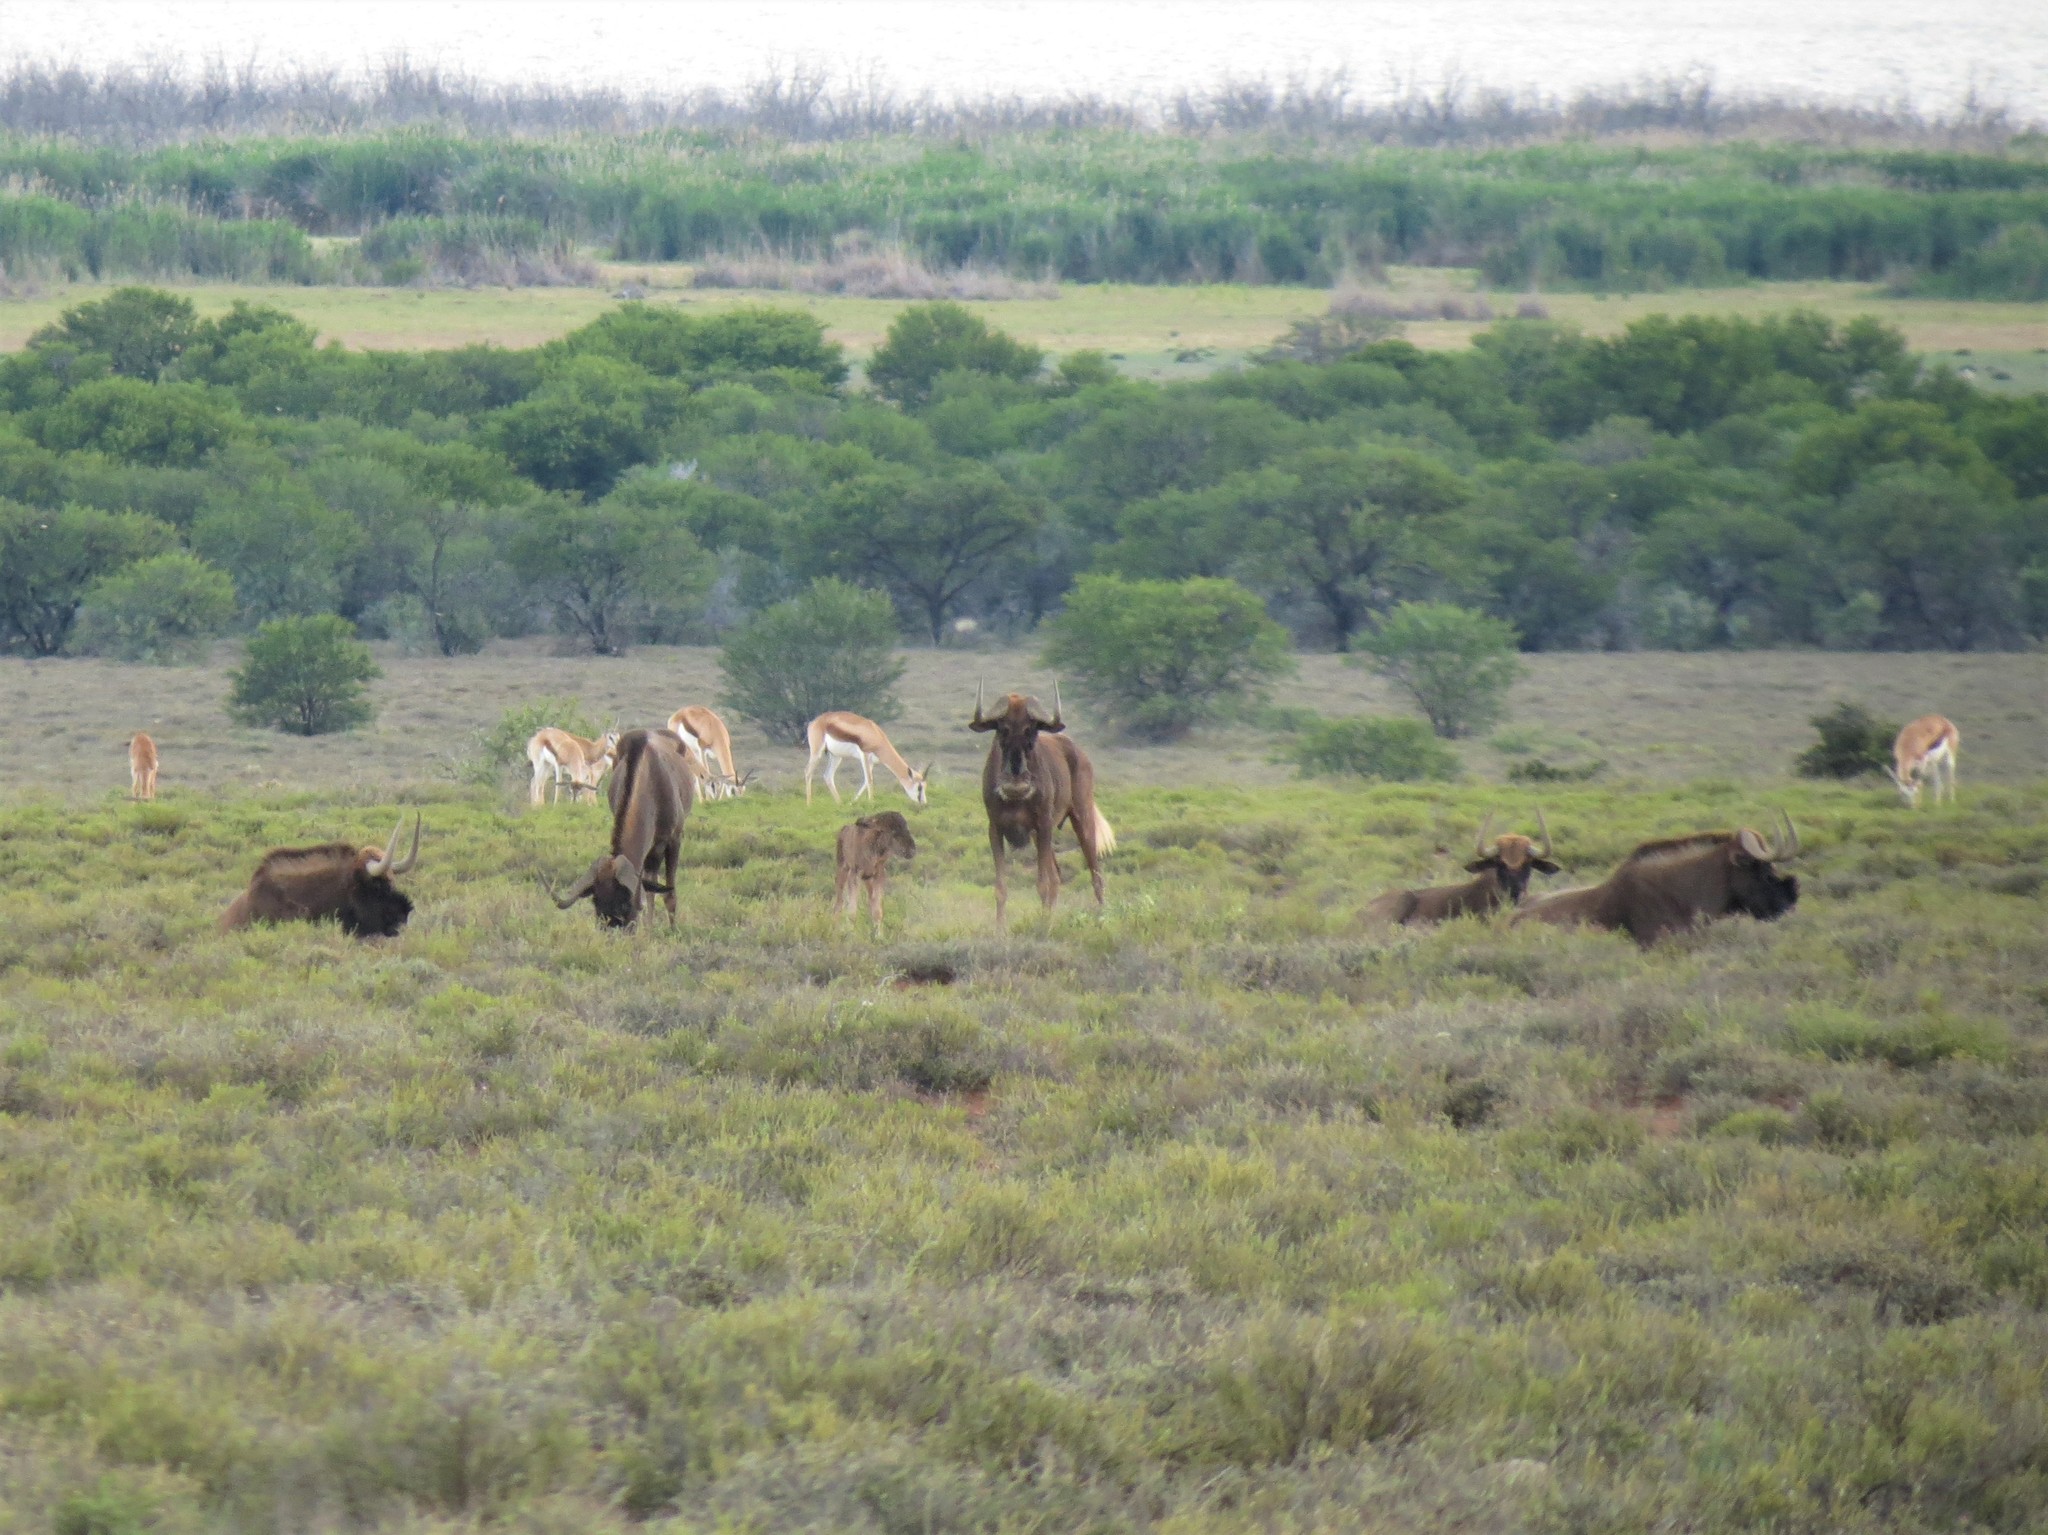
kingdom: Animalia
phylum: Chordata
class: Mammalia
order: Artiodactyla
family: Bovidae
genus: Antidorcas
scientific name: Antidorcas marsupialis
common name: Springbok
